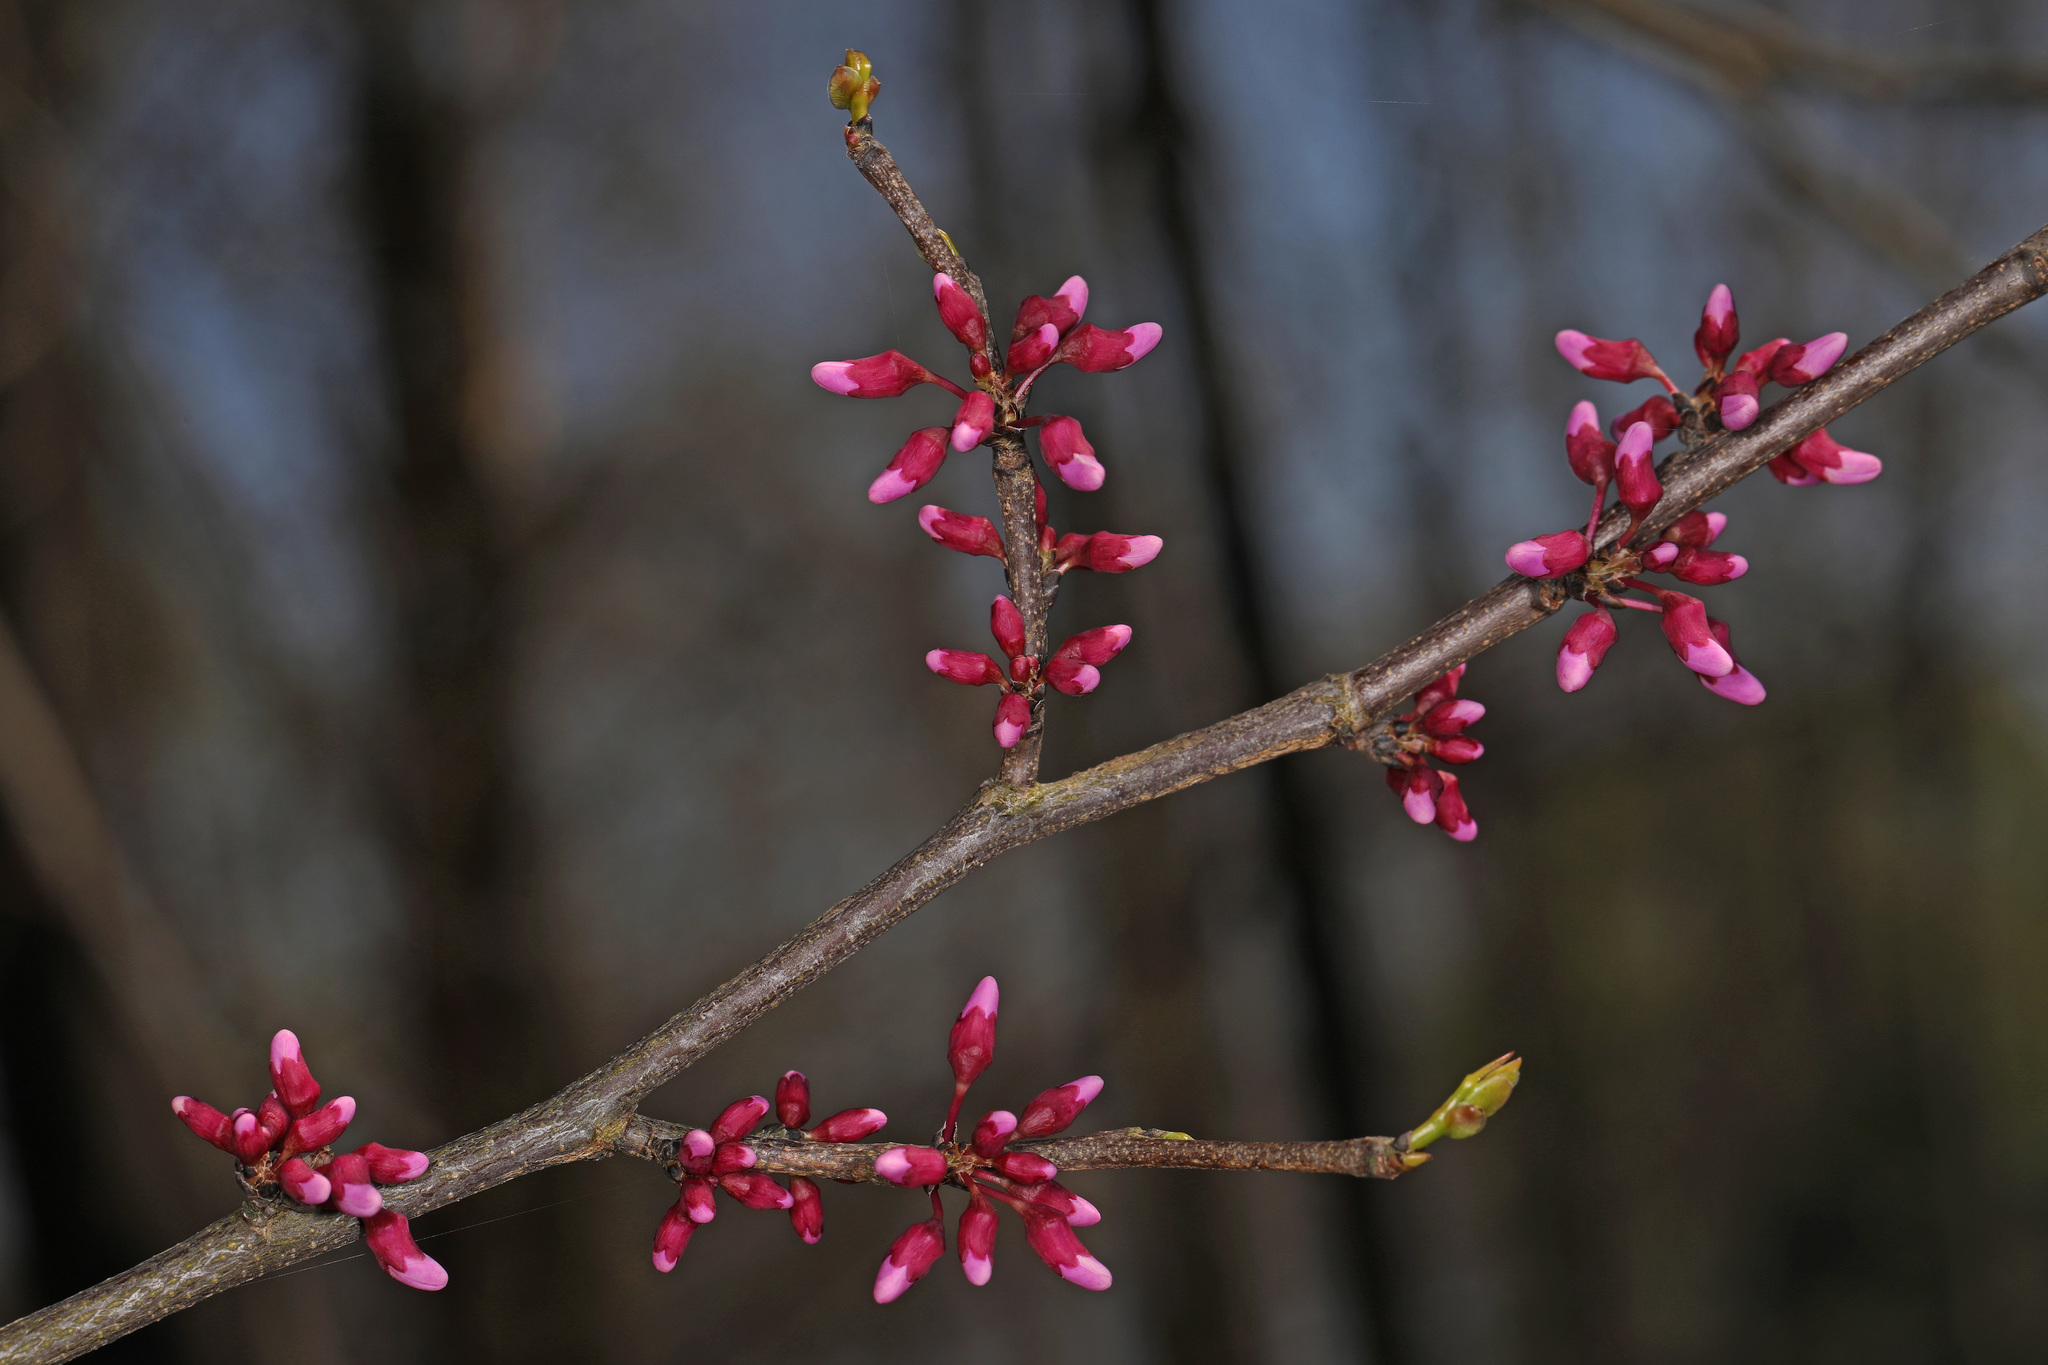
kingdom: Plantae
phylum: Tracheophyta
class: Magnoliopsida
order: Fabales
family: Fabaceae
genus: Cercis
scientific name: Cercis canadensis
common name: Eastern redbud
